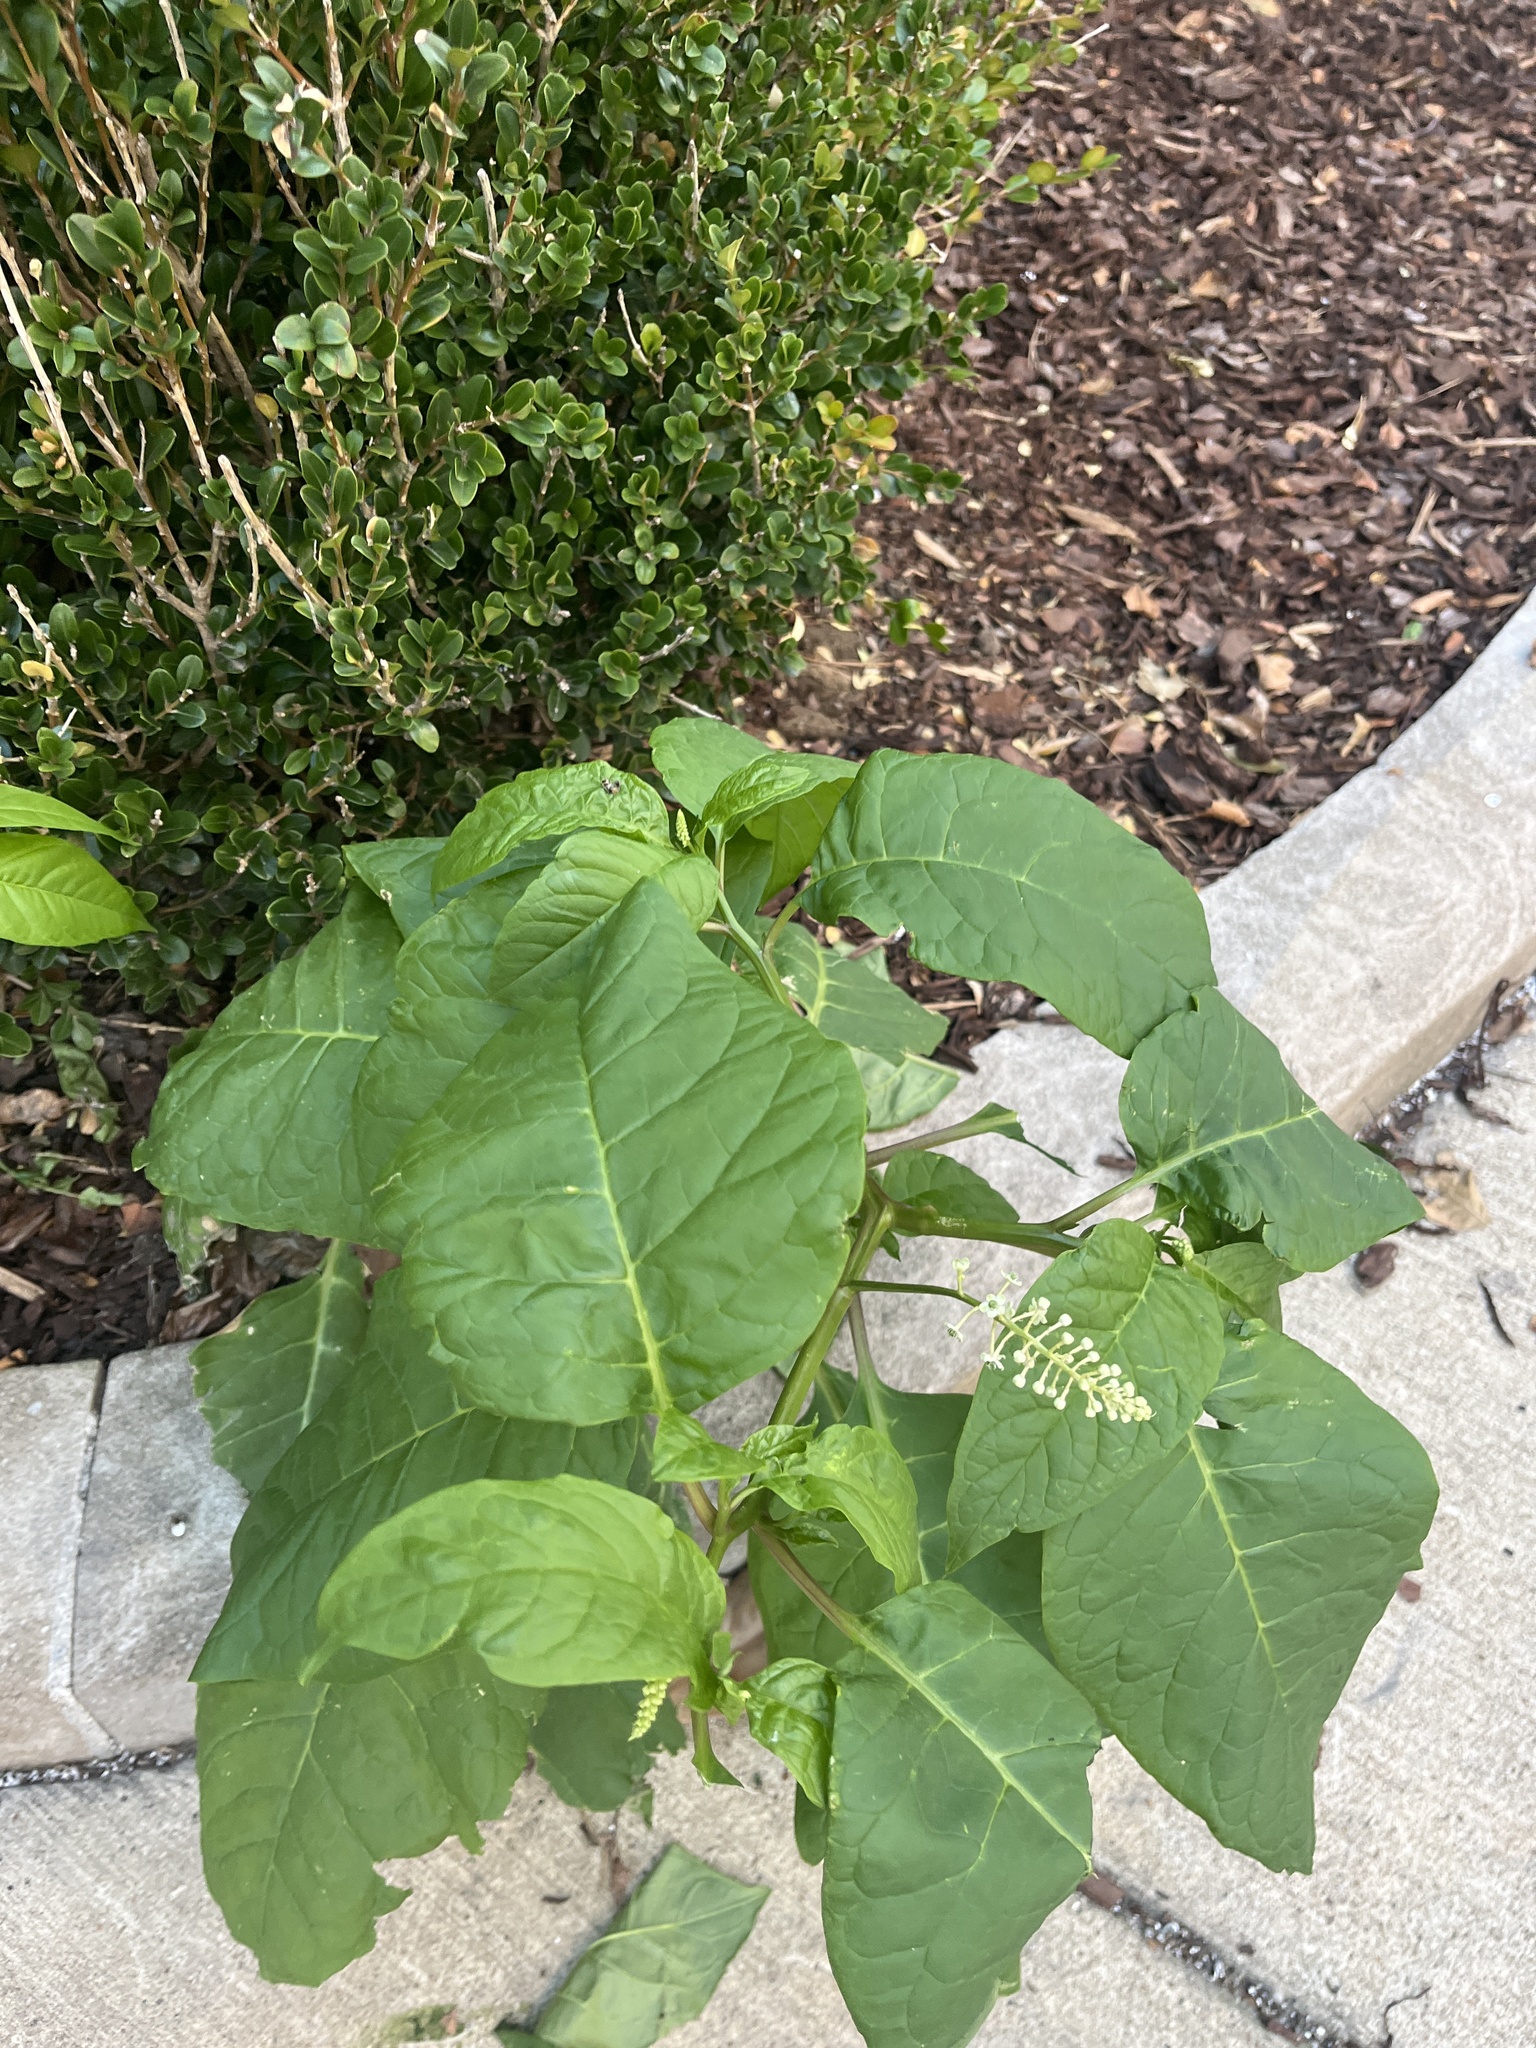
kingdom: Plantae
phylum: Tracheophyta
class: Magnoliopsida
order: Caryophyllales
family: Phytolaccaceae
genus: Phytolacca
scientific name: Phytolacca americana
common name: American pokeweed
